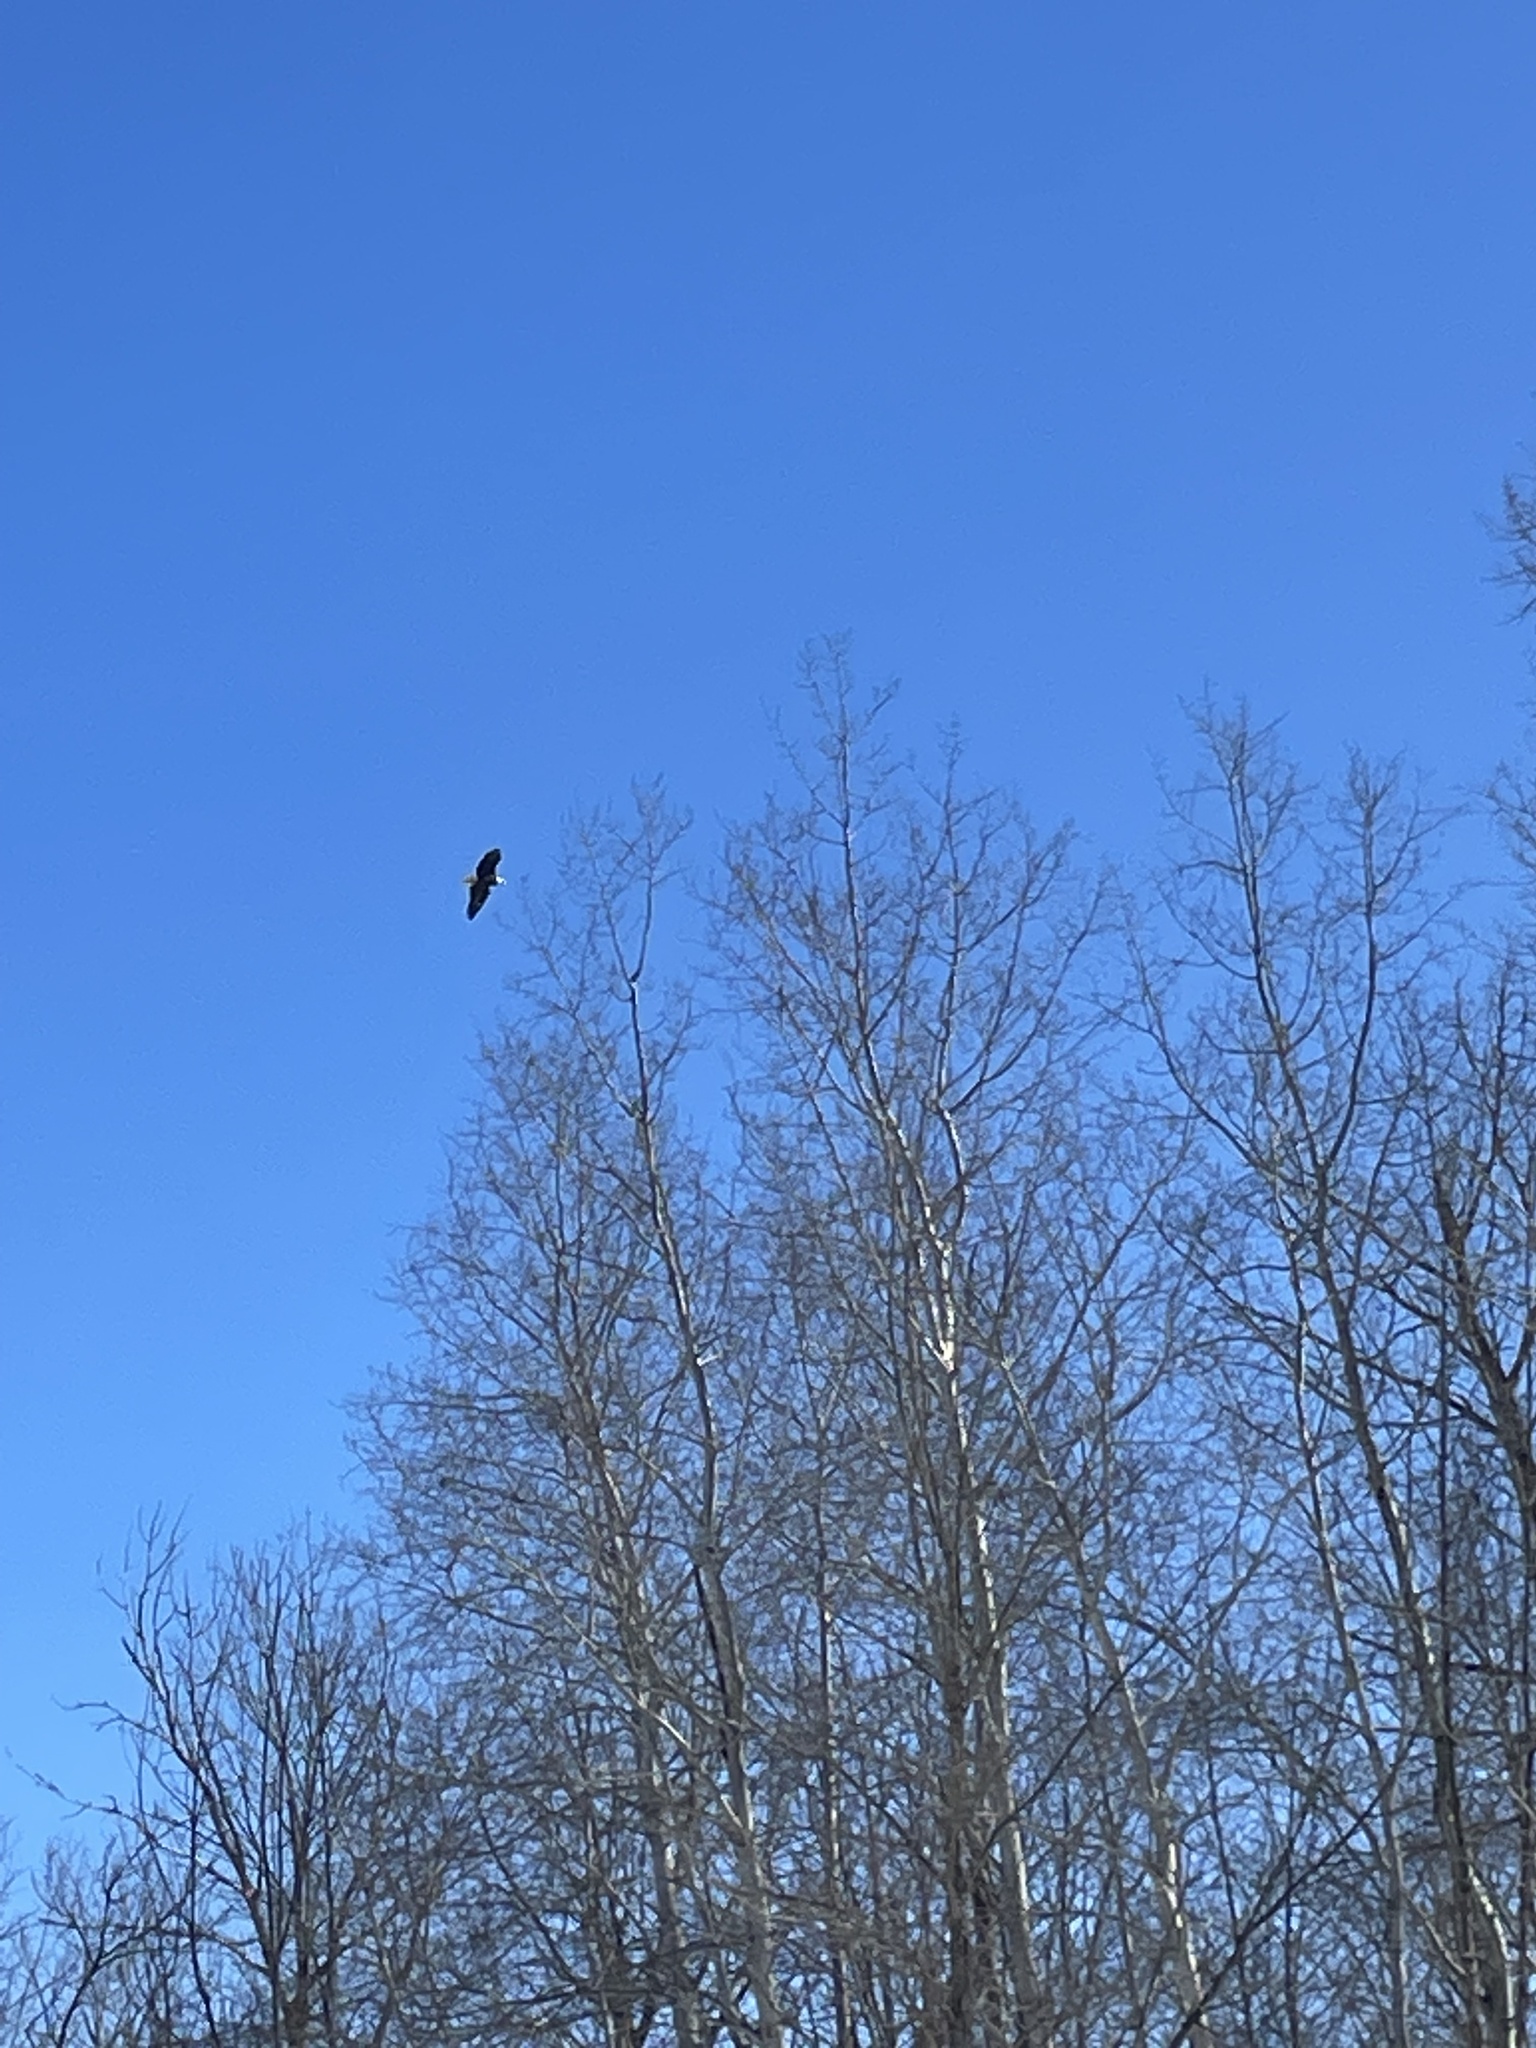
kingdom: Animalia
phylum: Chordata
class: Aves
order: Accipitriformes
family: Accipitridae
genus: Haliaeetus
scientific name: Haliaeetus leucocephalus
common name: Bald eagle
